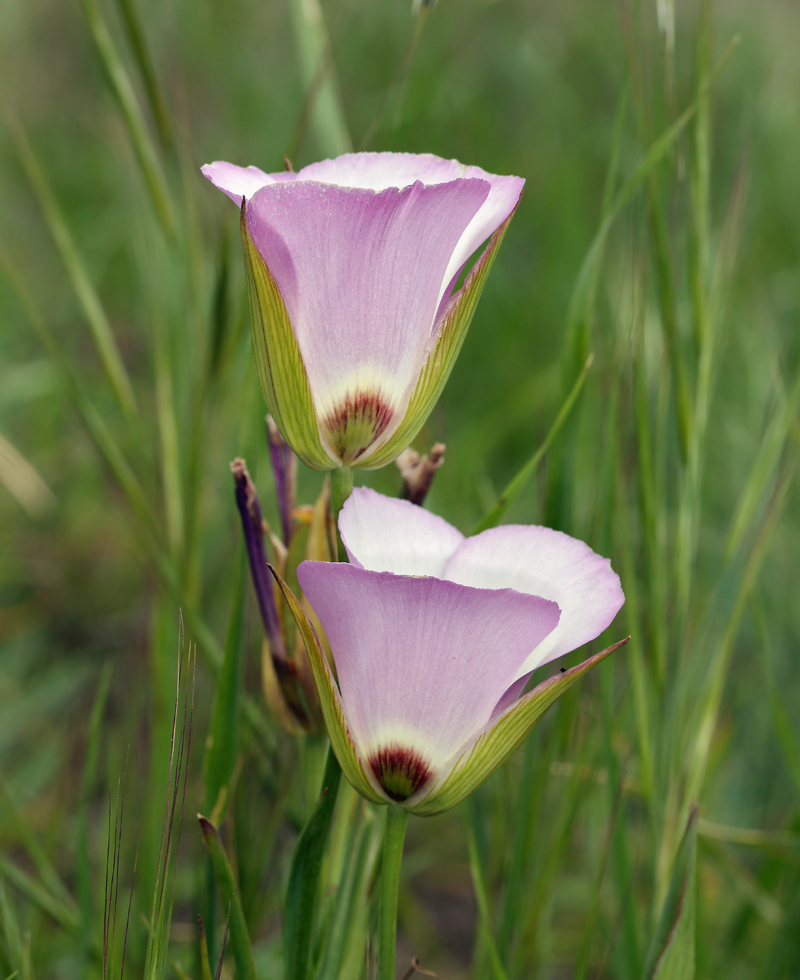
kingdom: Plantae
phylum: Tracheophyta
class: Liliopsida
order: Liliales
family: Liliaceae
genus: Calochortus
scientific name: Calochortus catalinae
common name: Catalina mariposa-lily
